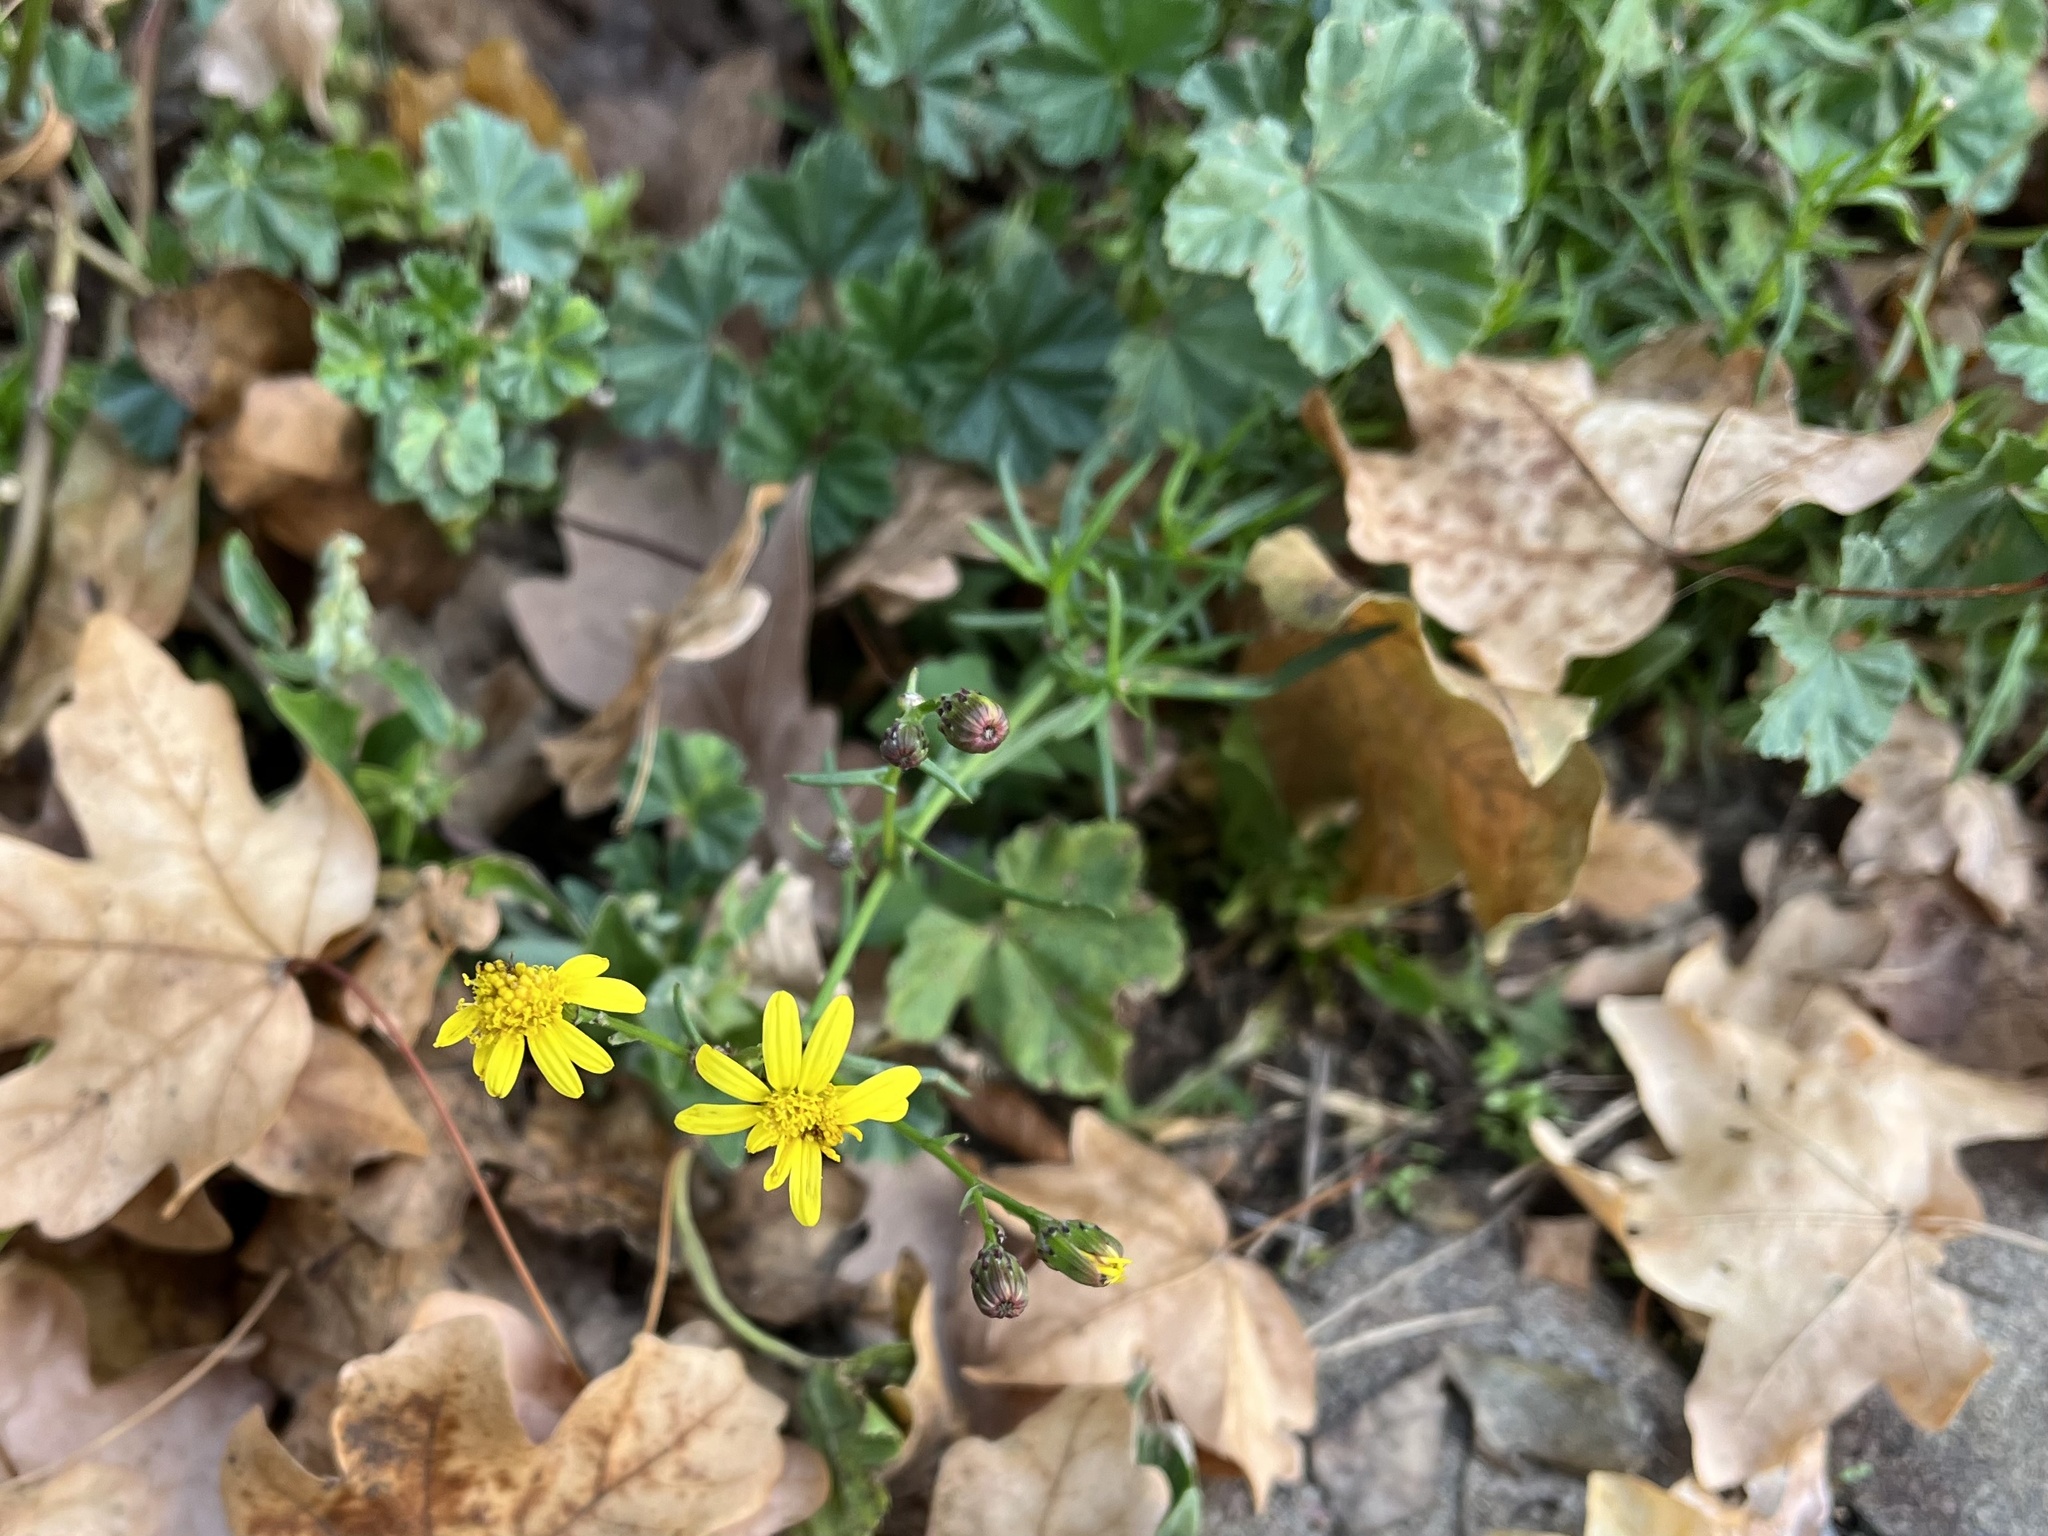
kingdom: Plantae
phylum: Tracheophyta
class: Magnoliopsida
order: Asterales
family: Asteraceae
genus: Senecio
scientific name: Senecio inaequidens
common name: Narrow-leaved ragwort
